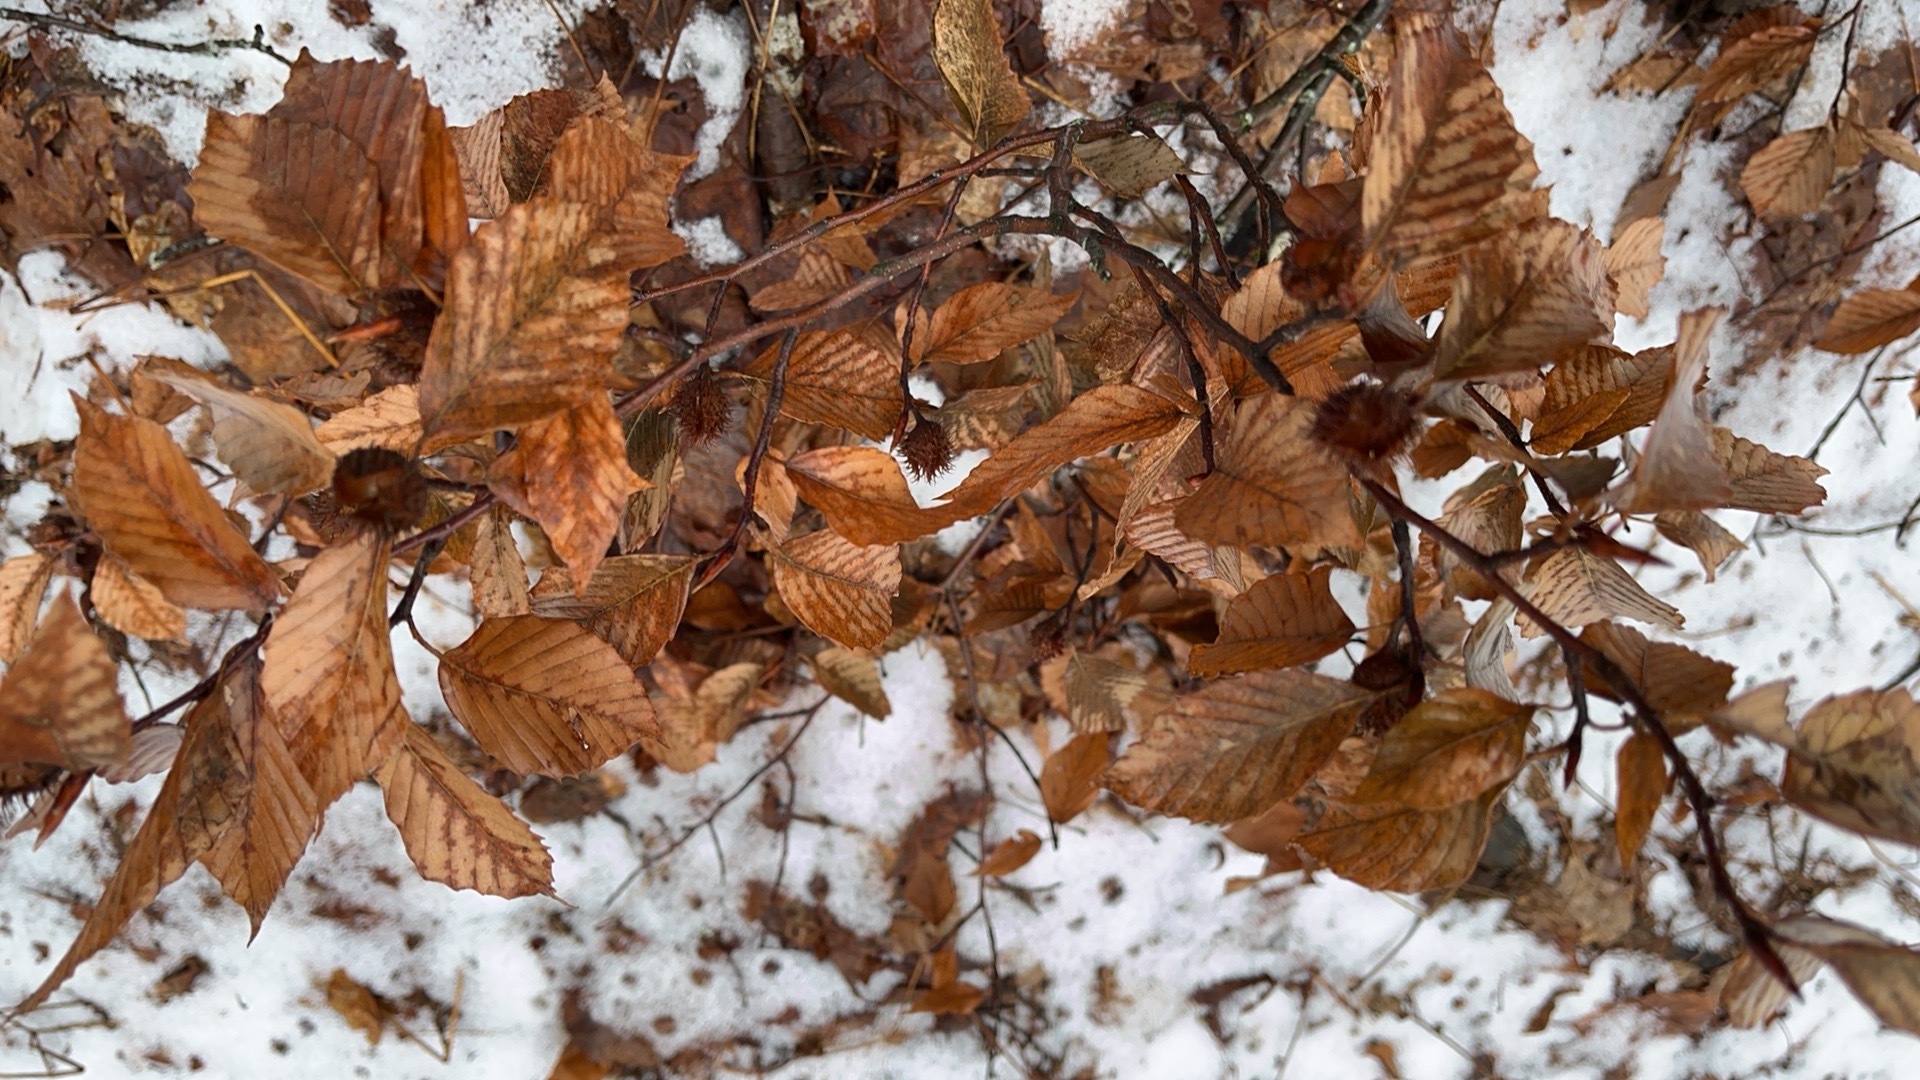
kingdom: Plantae
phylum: Tracheophyta
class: Magnoliopsida
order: Fagales
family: Fagaceae
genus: Fagus
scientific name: Fagus grandifolia
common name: American beech
